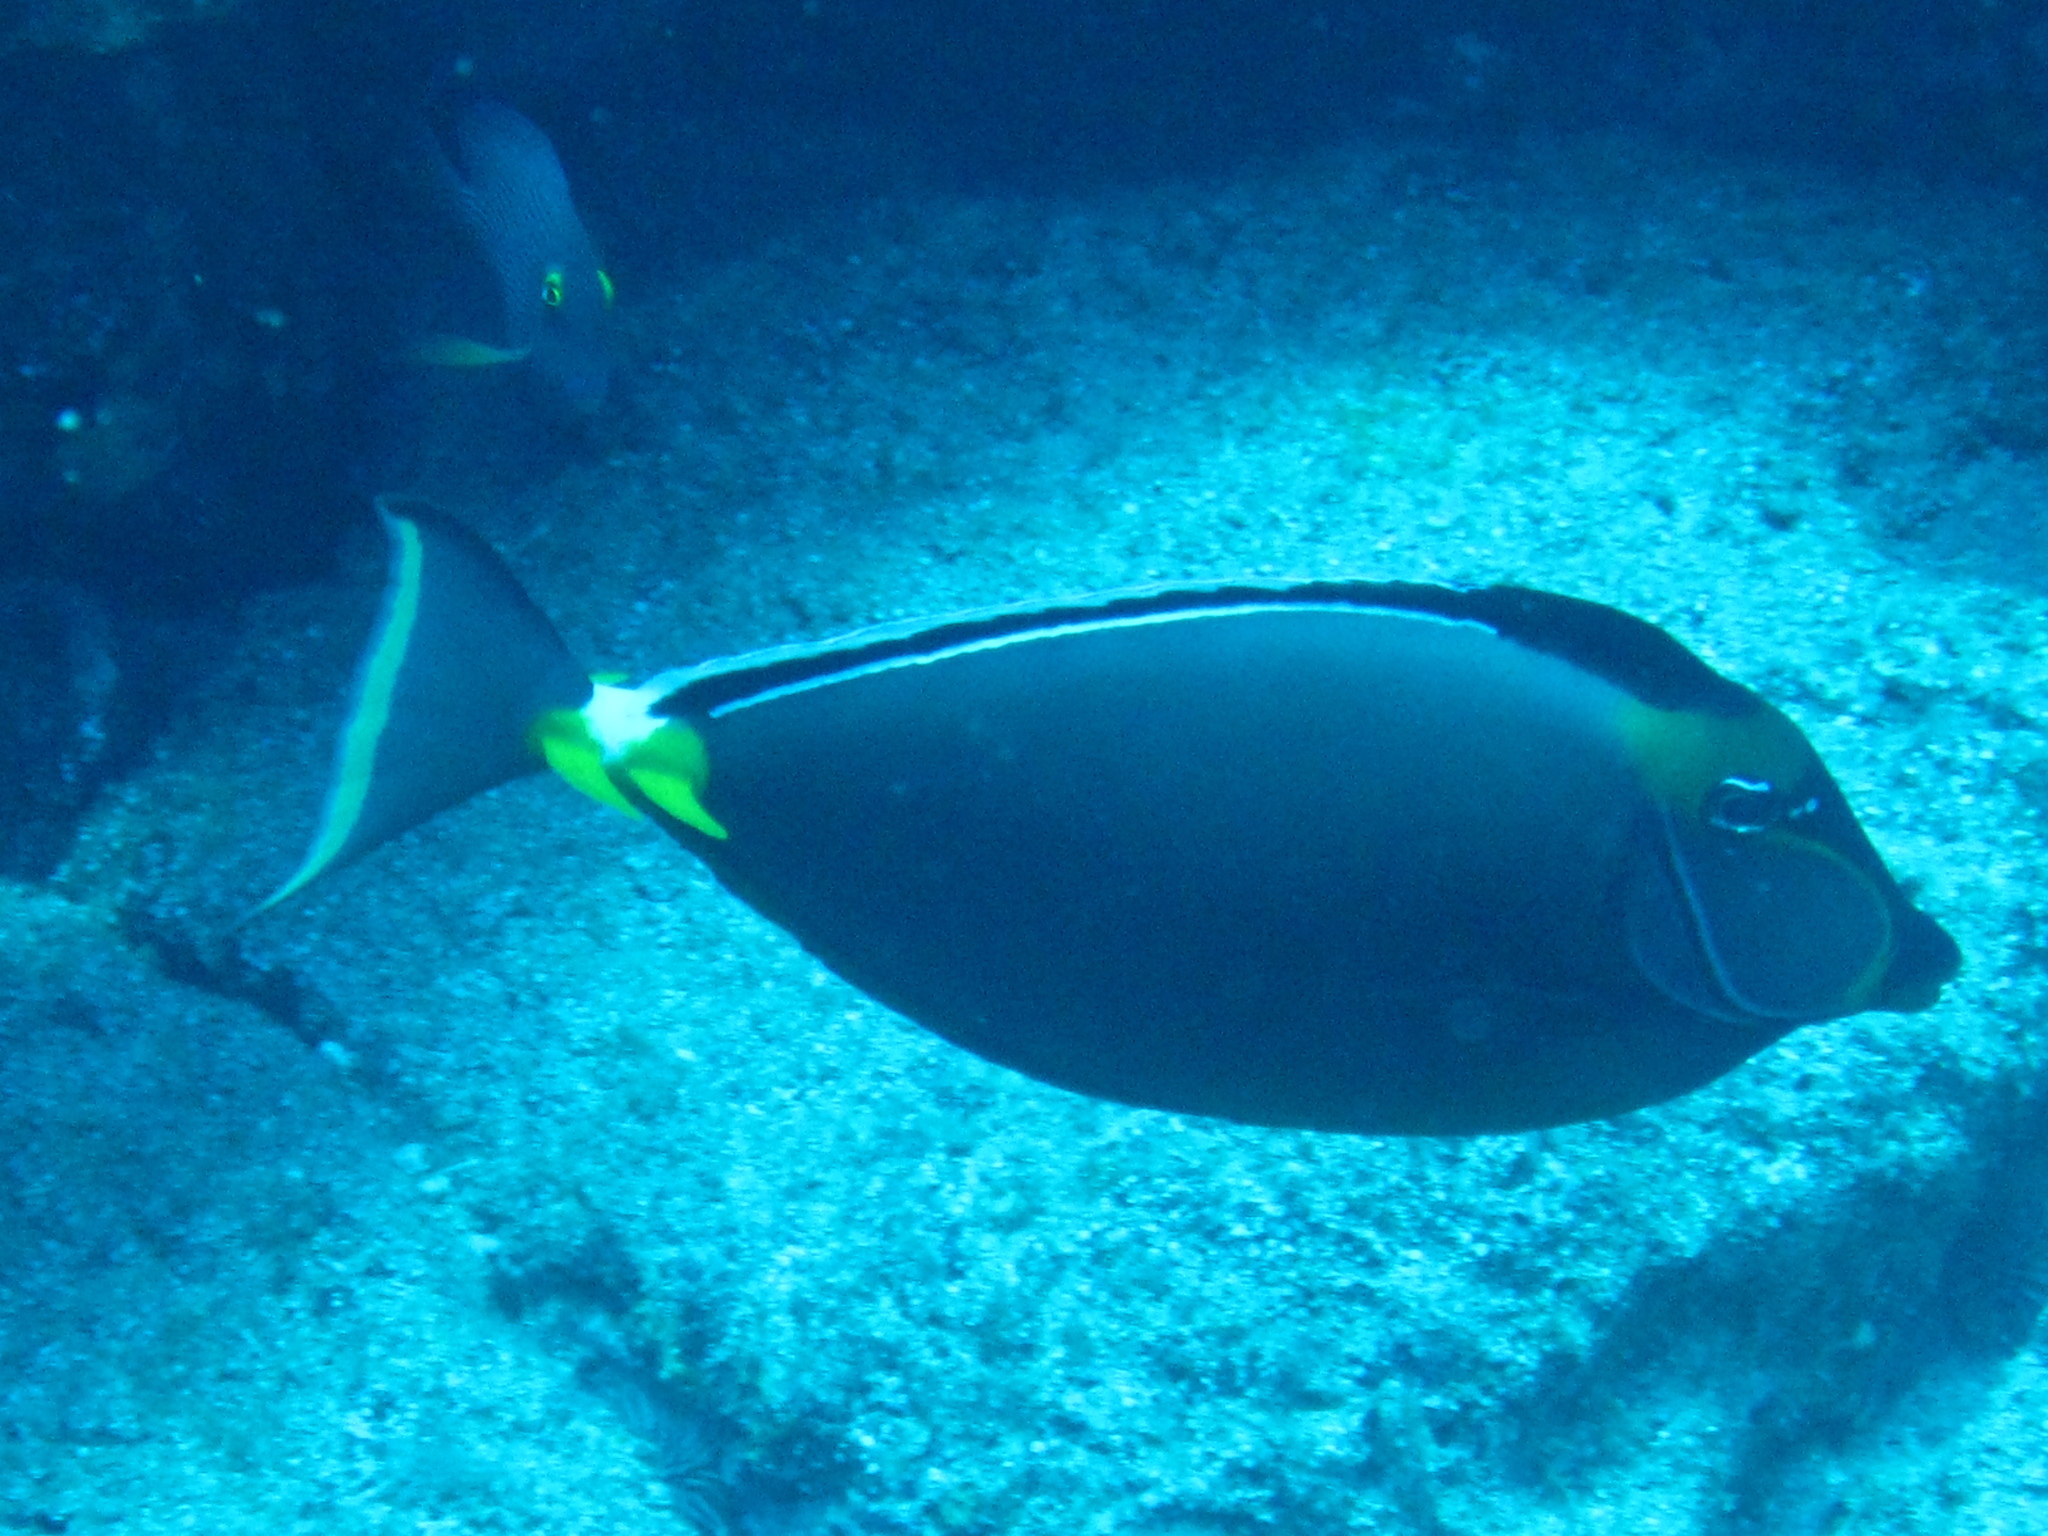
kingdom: Animalia
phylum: Chordata
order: Perciformes
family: Acanthuridae
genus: Naso
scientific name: Naso lituratus
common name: Orangespine unicornfish
